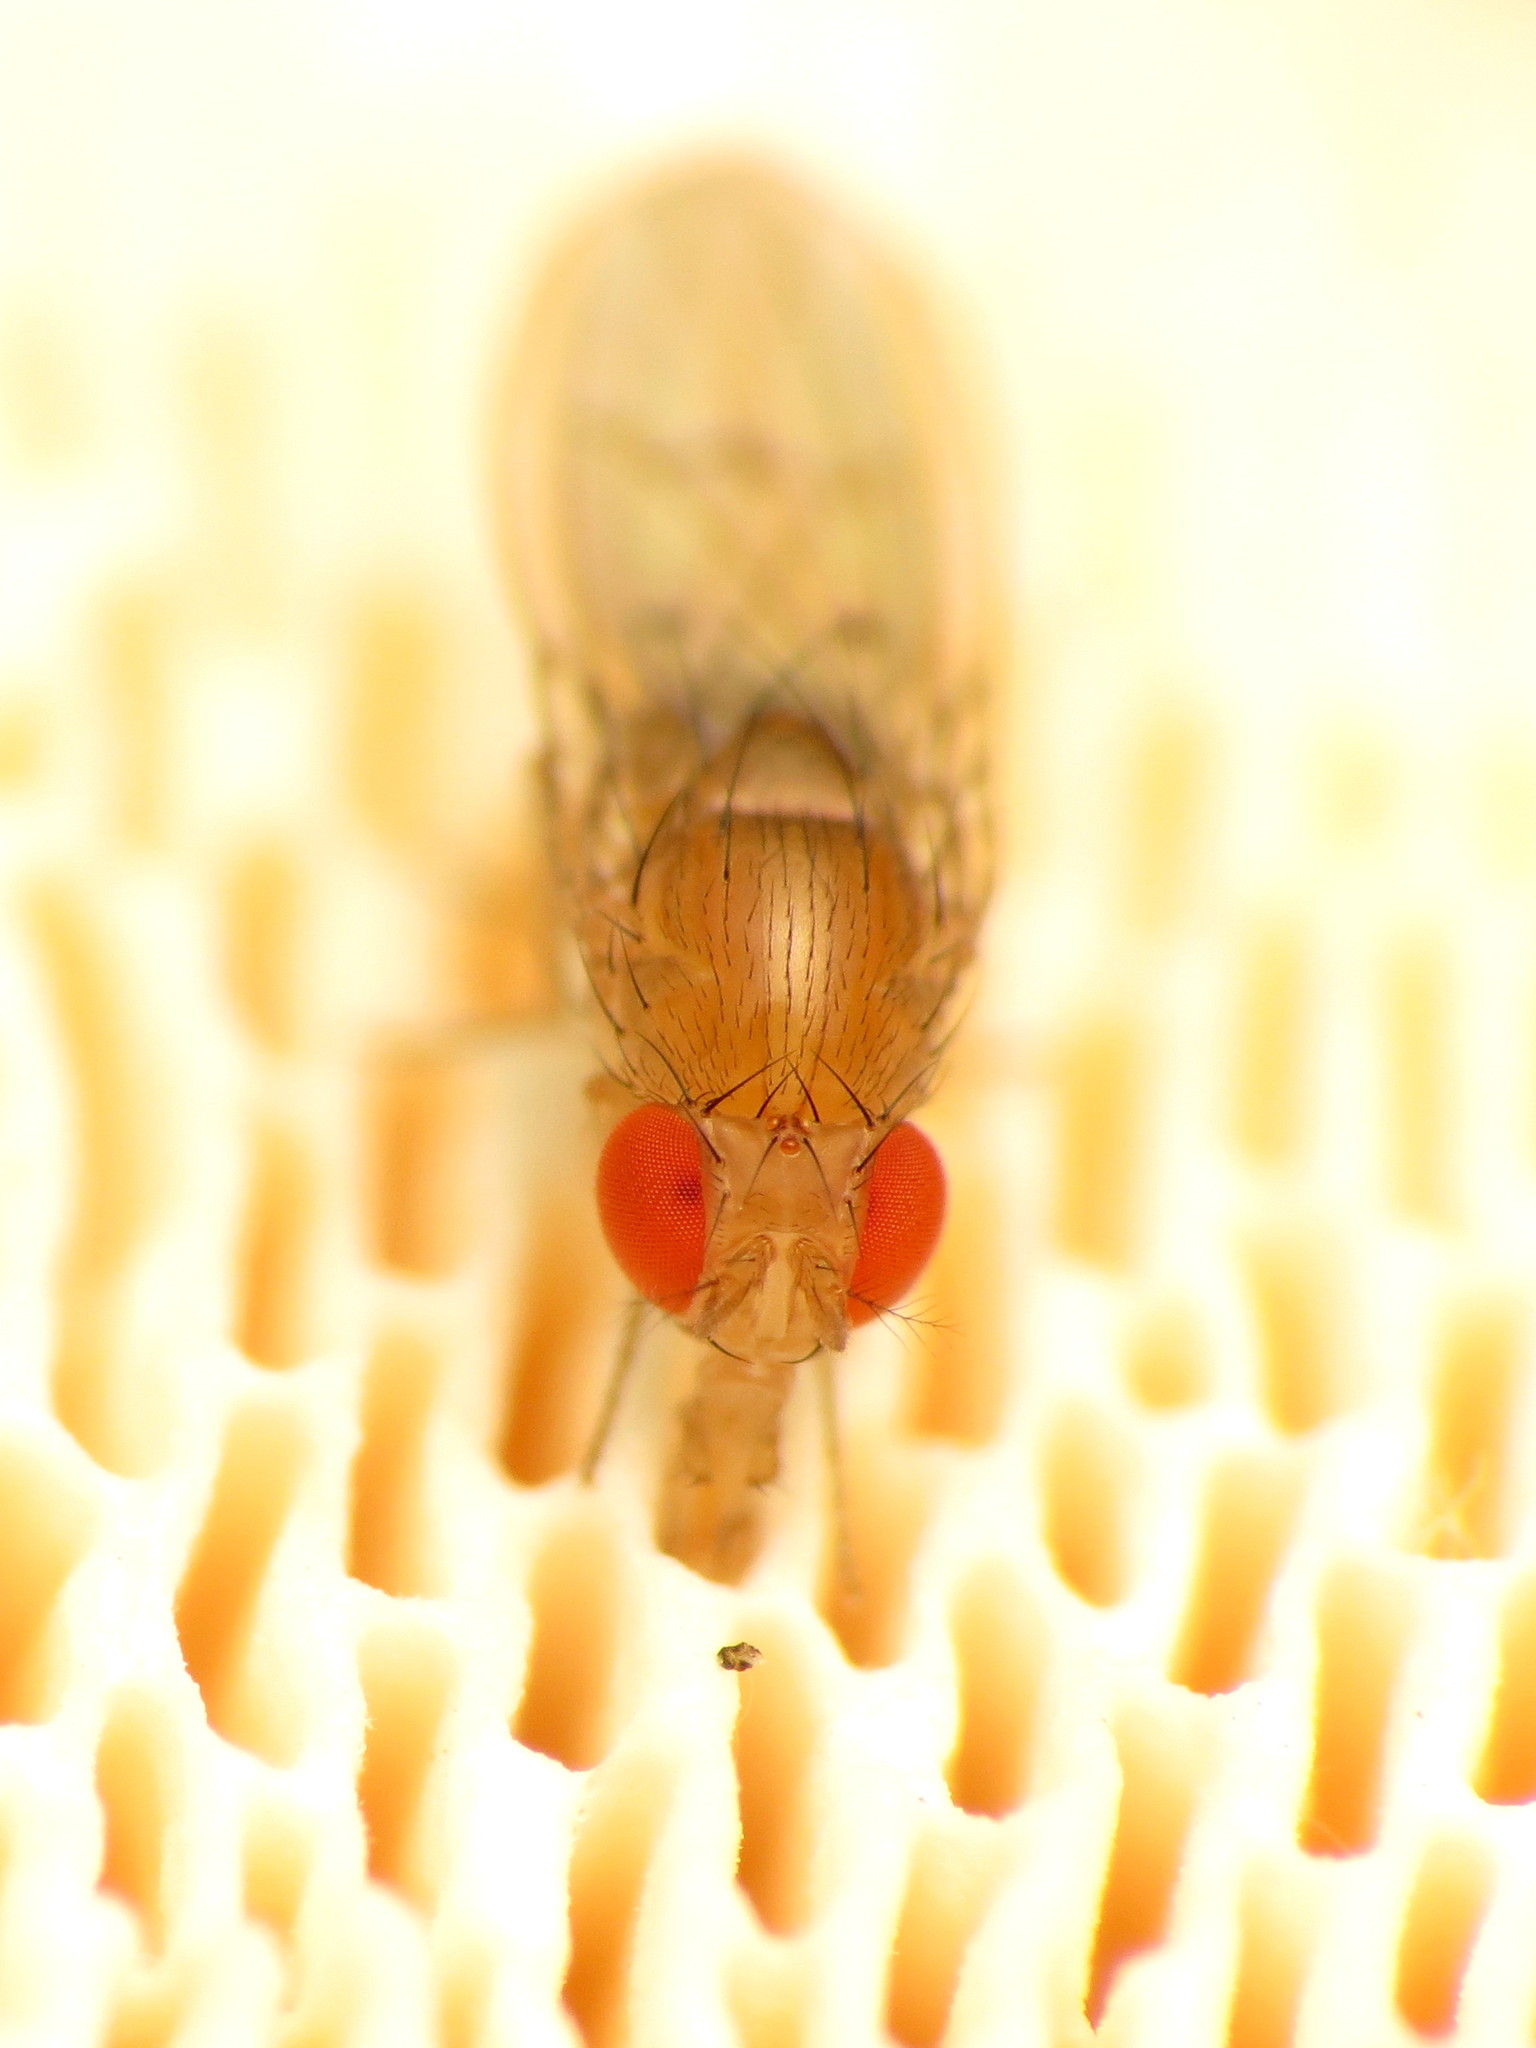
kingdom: Animalia
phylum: Arthropoda
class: Insecta
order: Diptera
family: Drosophilidae
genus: Drosophila
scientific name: Drosophila falleni
